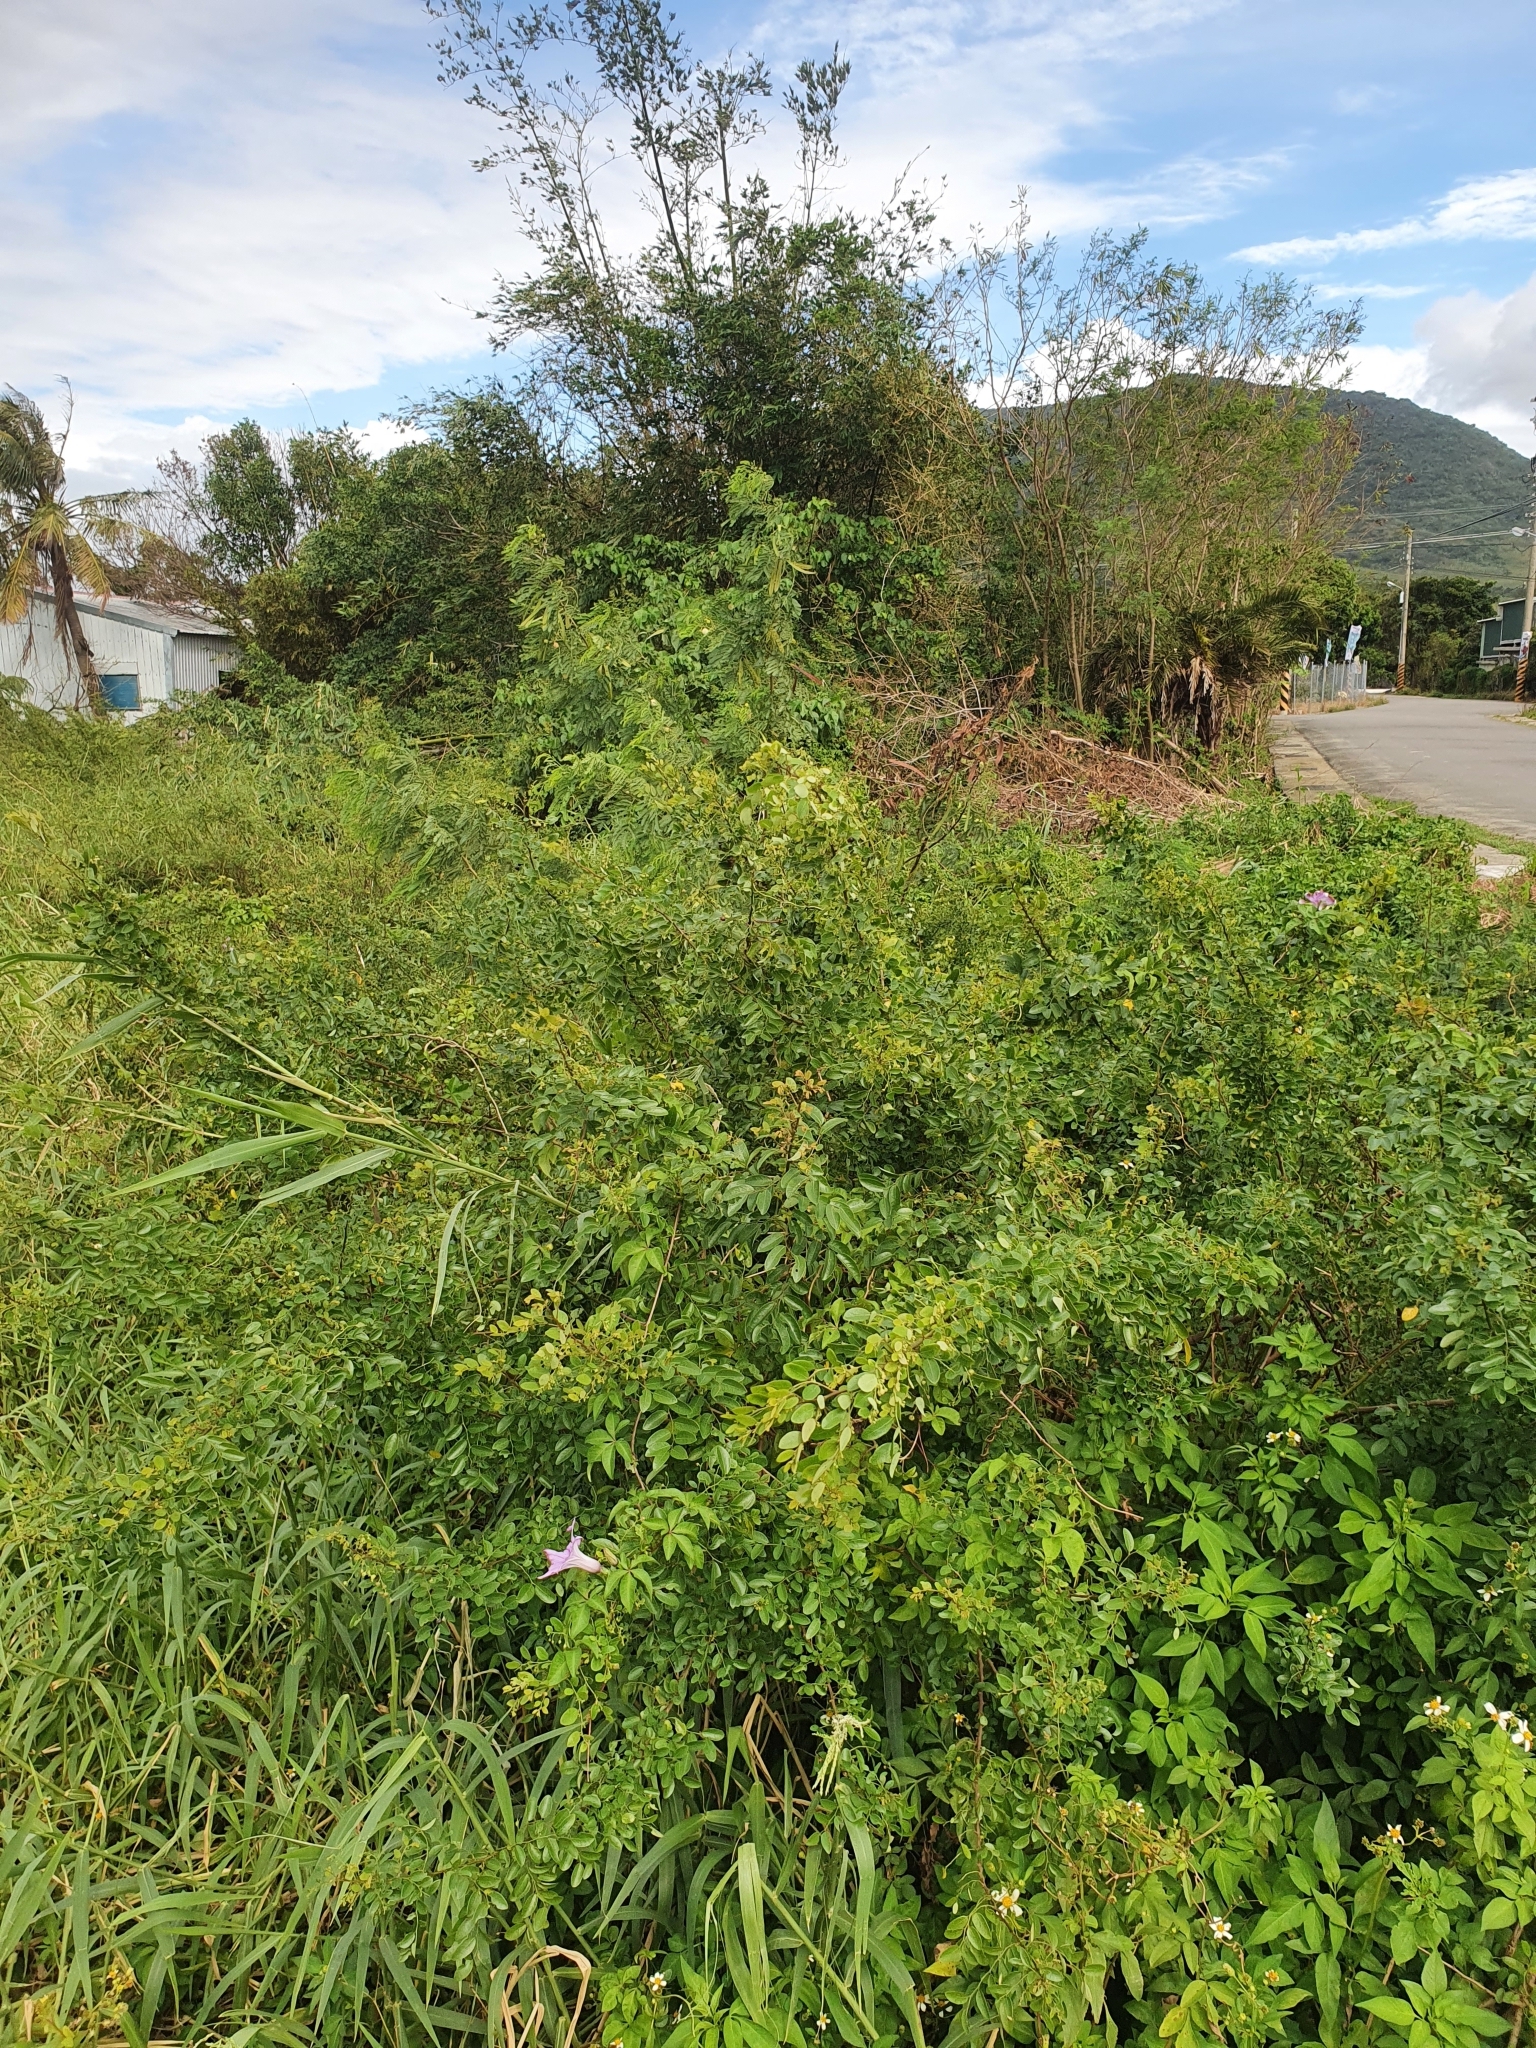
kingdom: Plantae
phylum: Tracheophyta
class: Magnoliopsida
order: Malpighiales
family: Phyllanthaceae
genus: Phyllanthus
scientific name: Phyllanthus reticulatus
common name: Potato bush
